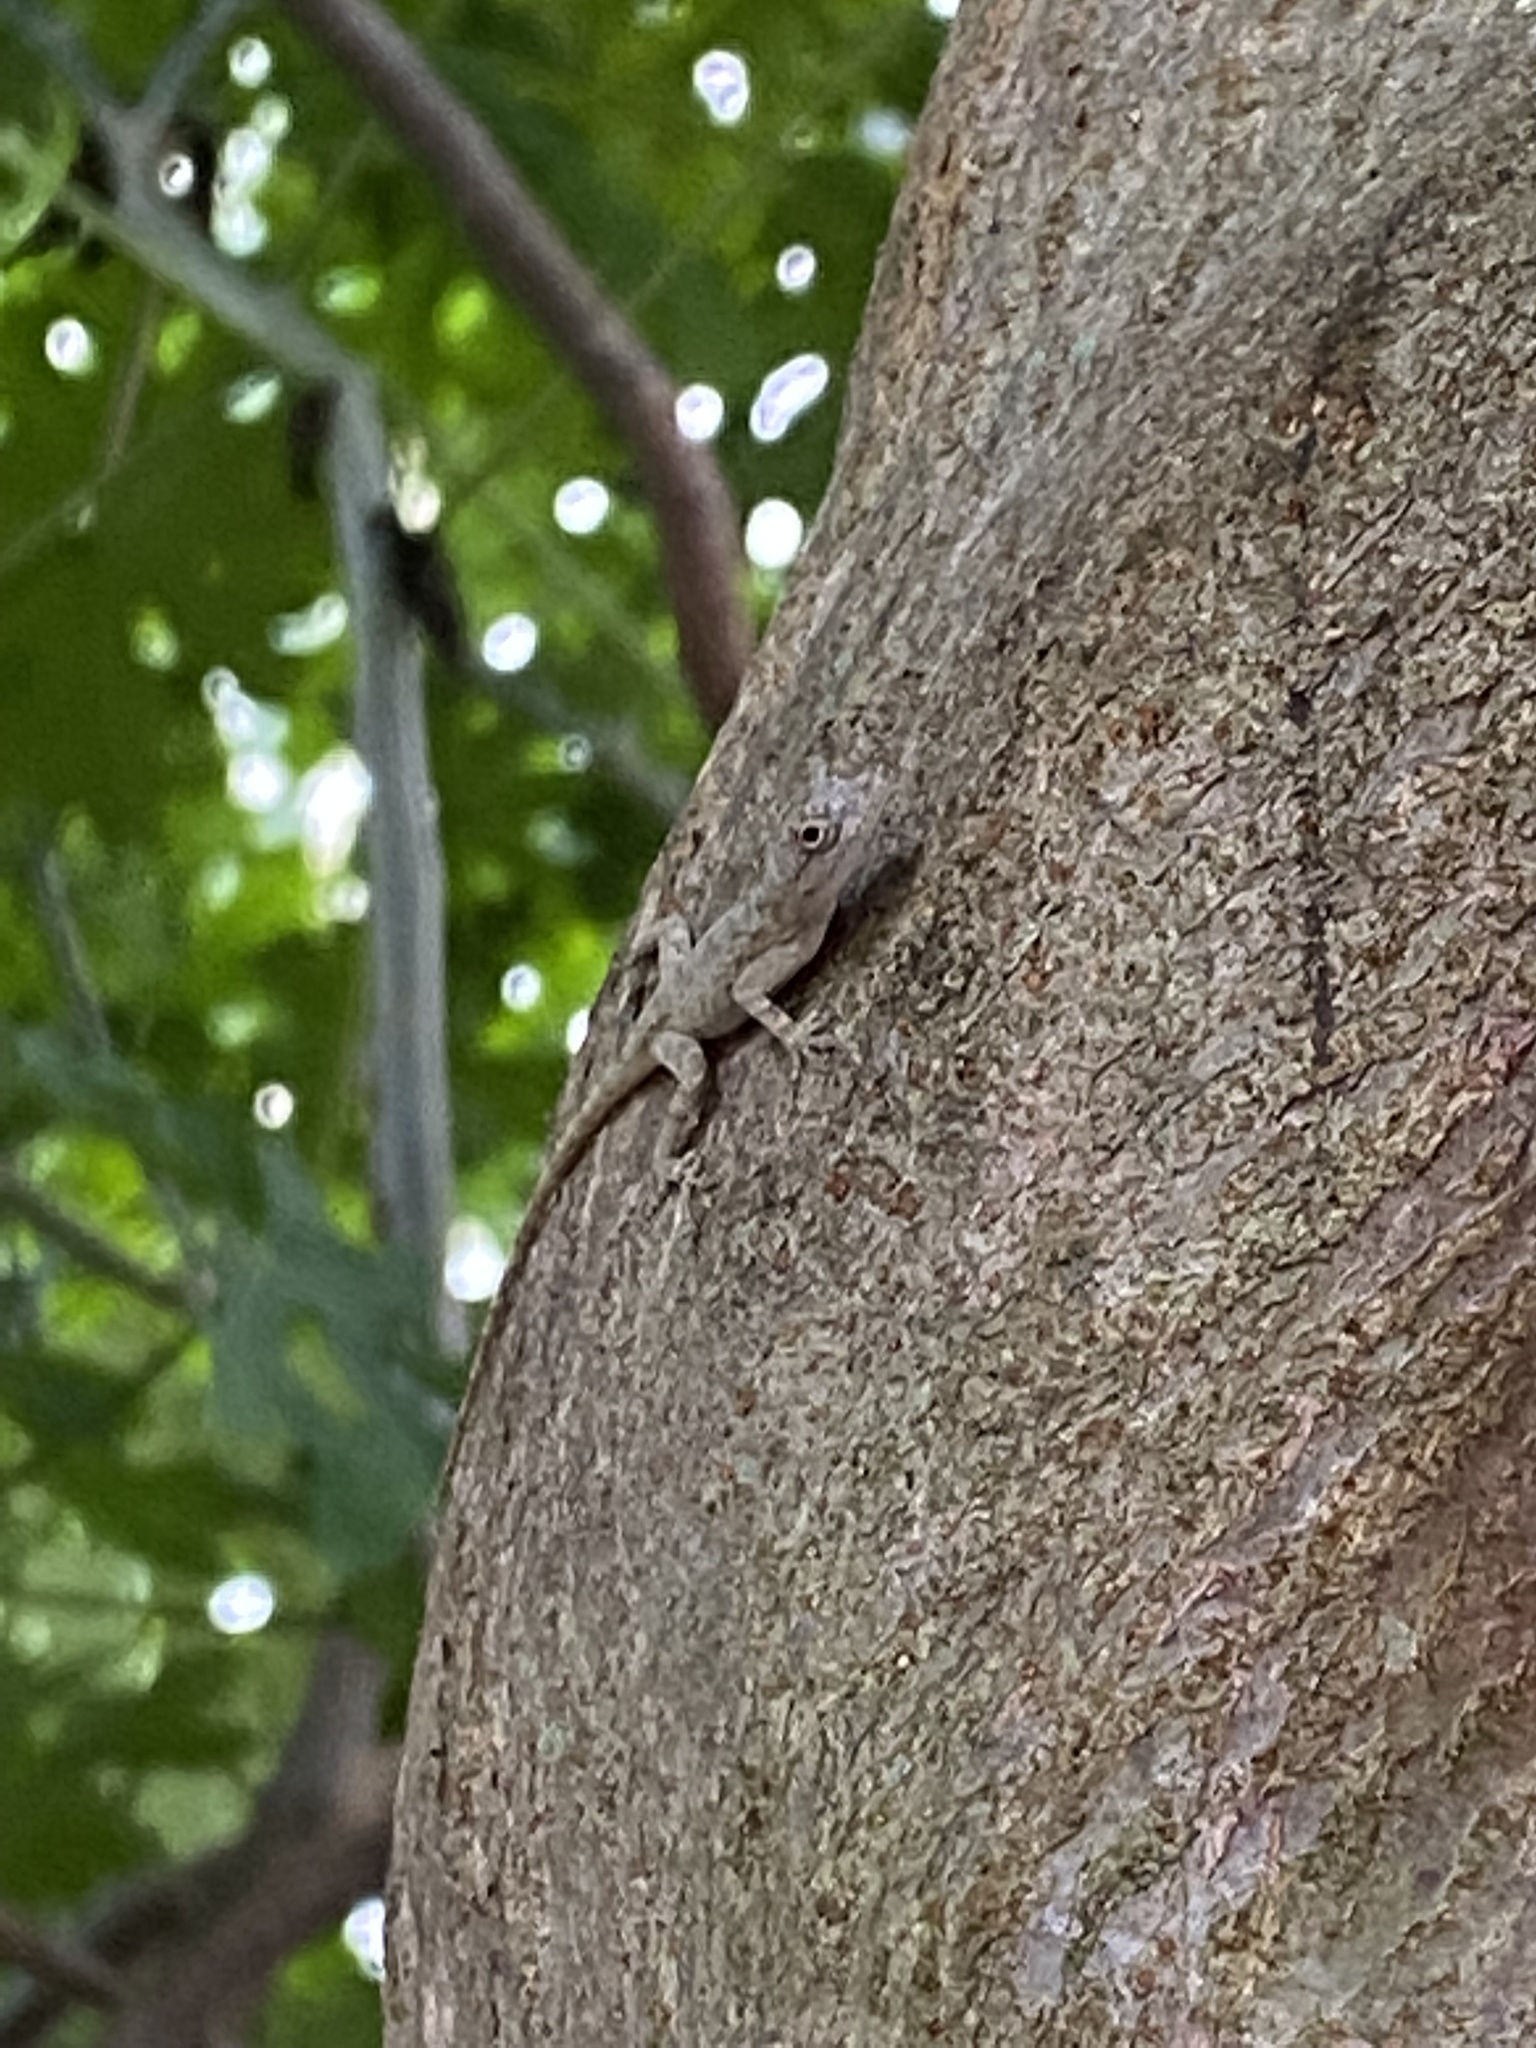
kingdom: Animalia
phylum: Chordata
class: Squamata
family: Dactyloidae
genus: Anolis
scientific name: Anolis distichus
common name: Bark anole
